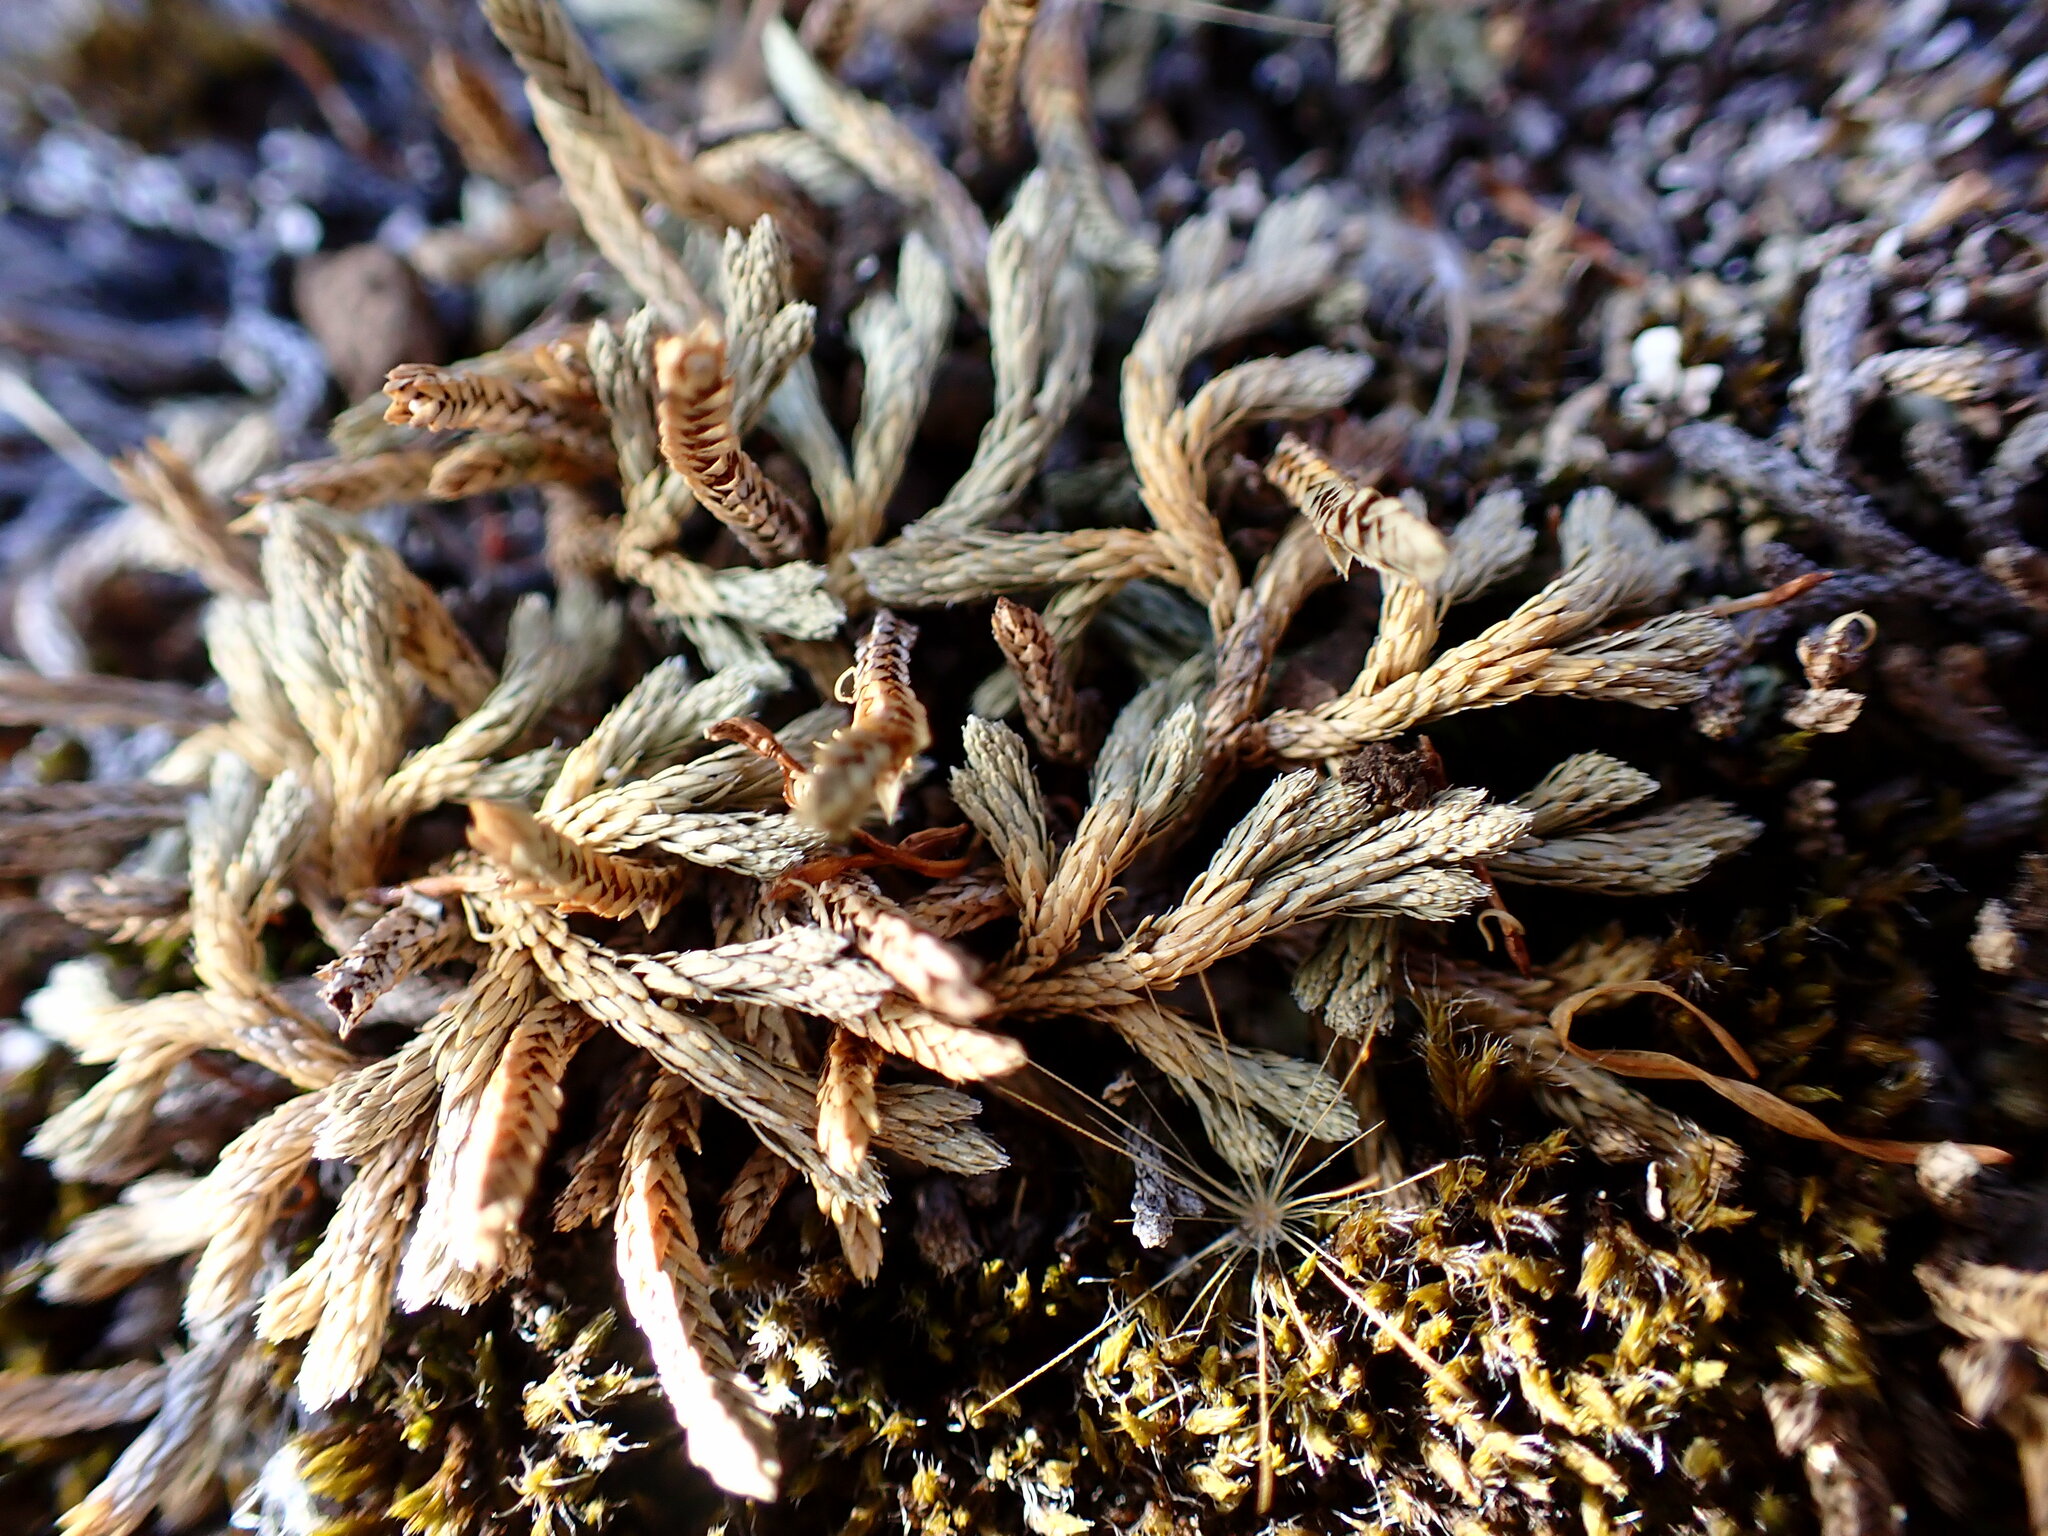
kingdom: Plantae
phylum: Tracheophyta
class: Lycopodiopsida
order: Selaginellales
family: Selaginellaceae
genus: Selaginella
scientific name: Selaginella wallacei
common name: Wallace's selaginella
